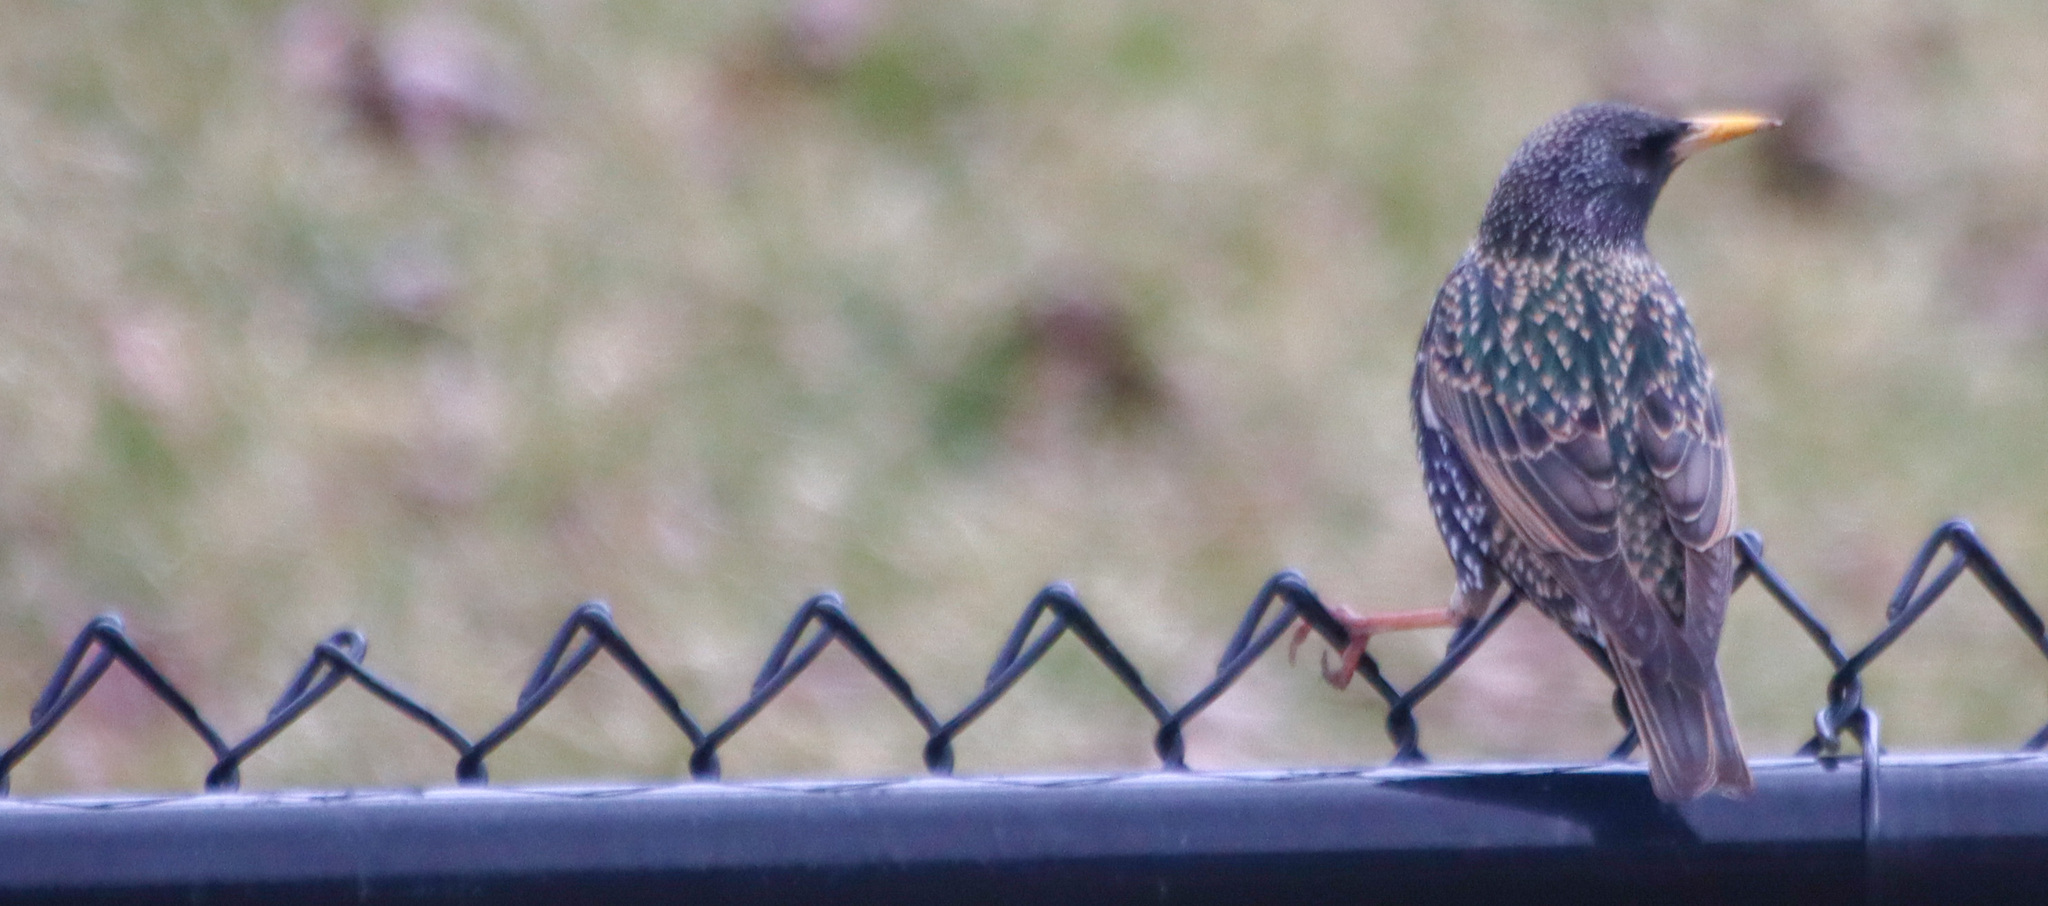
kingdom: Animalia
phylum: Chordata
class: Aves
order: Passeriformes
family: Sturnidae
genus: Sturnus
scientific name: Sturnus vulgaris
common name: Common starling
